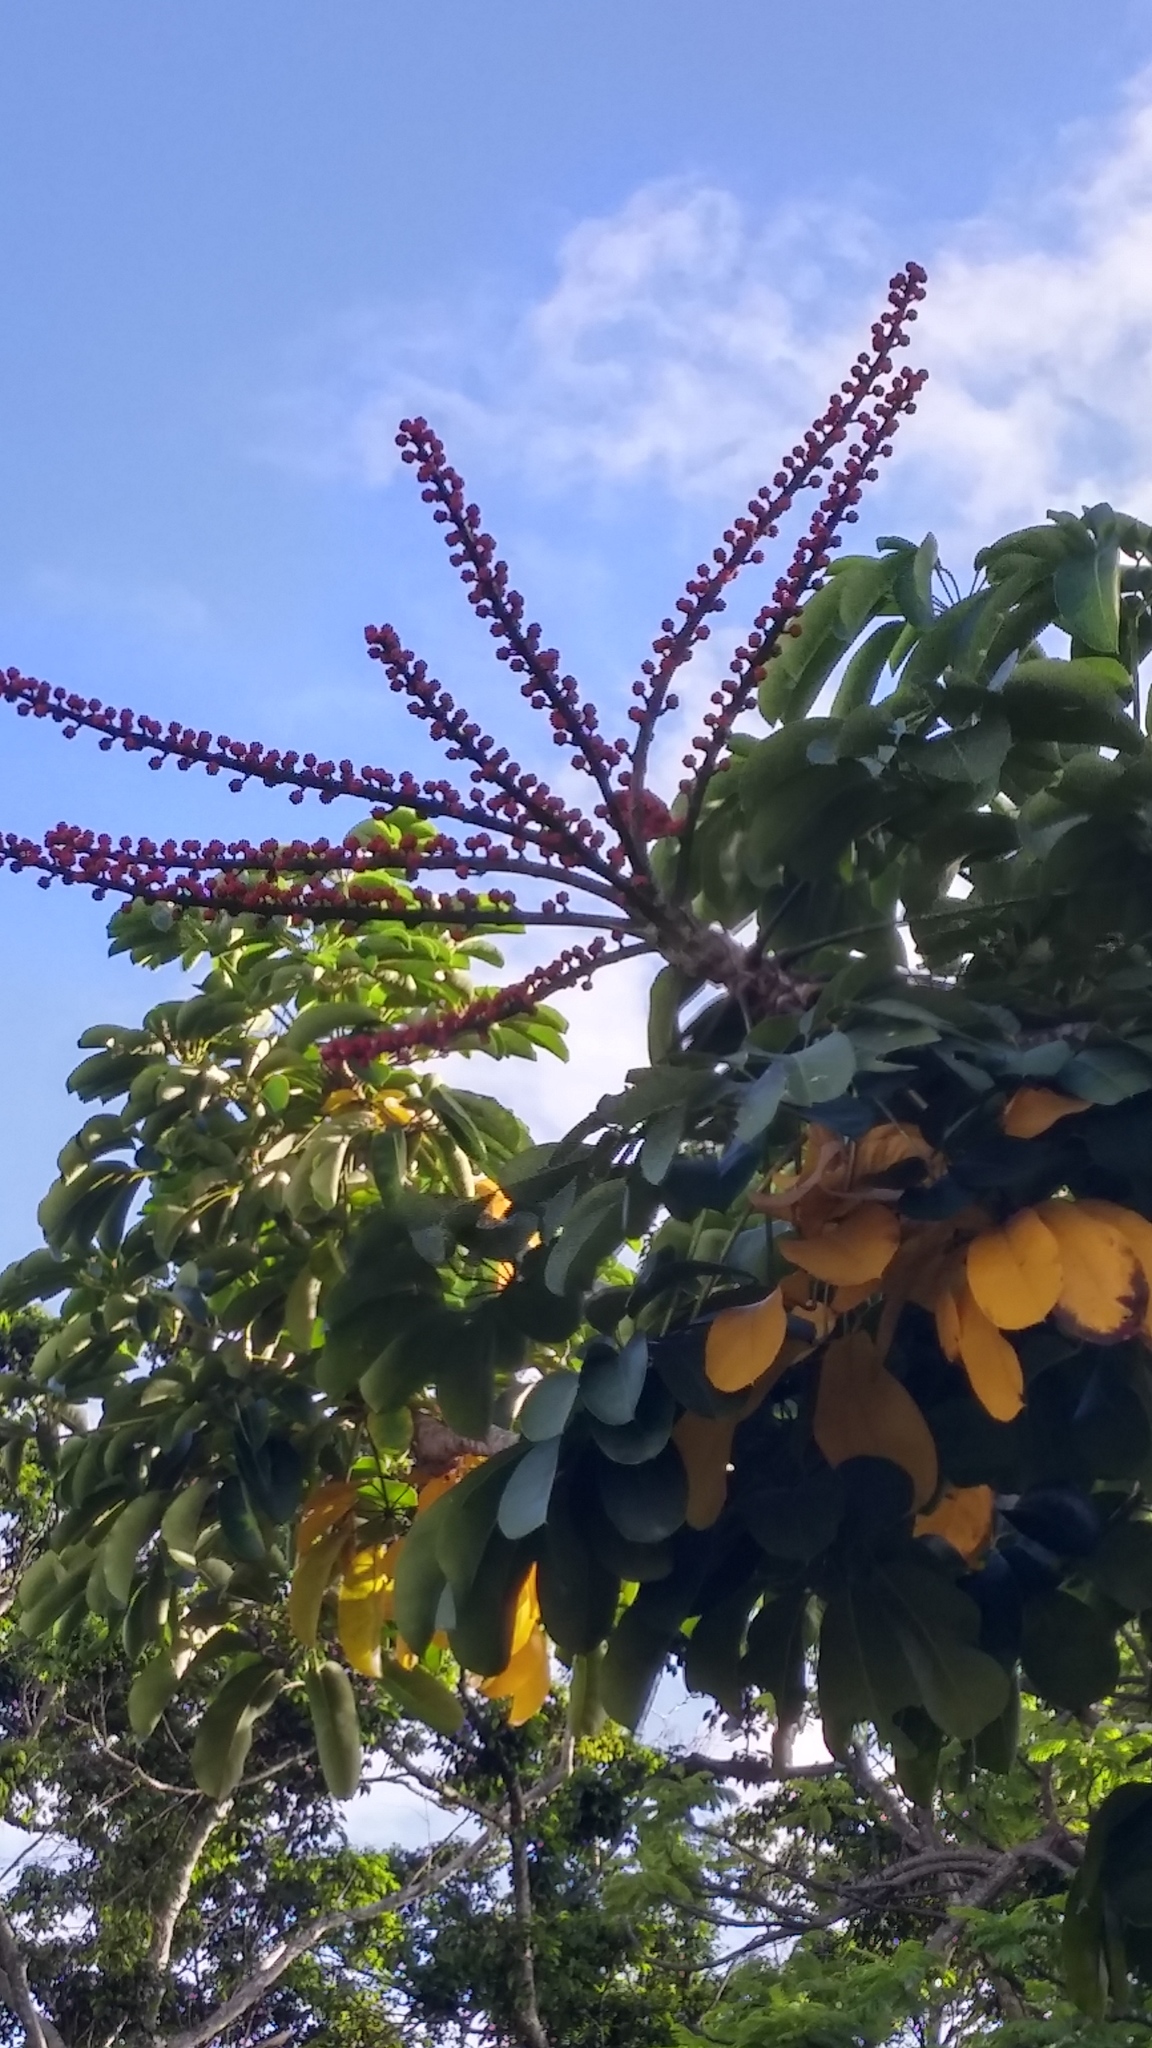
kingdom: Plantae
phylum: Tracheophyta
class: Magnoliopsida
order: Apiales
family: Araliaceae
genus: Heptapleurum
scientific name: Heptapleurum actinophyllum
